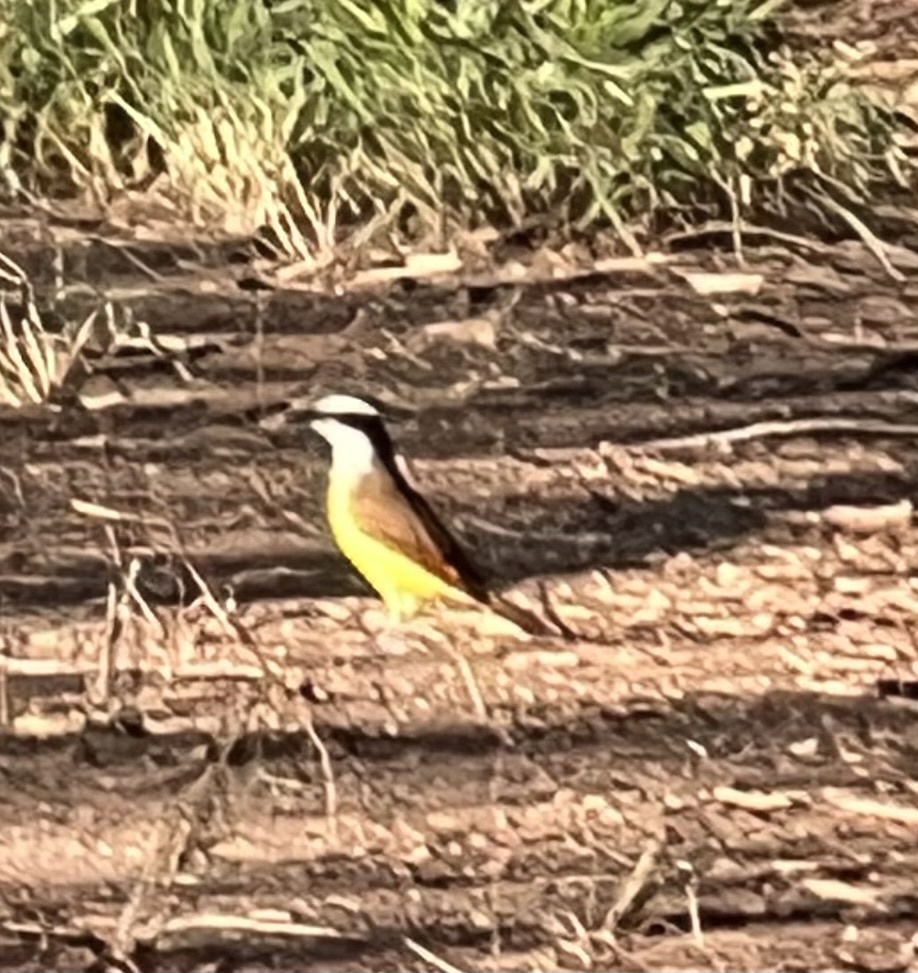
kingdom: Animalia
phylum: Chordata
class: Aves
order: Passeriformes
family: Tyrannidae
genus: Pitangus
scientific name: Pitangus sulphuratus
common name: Great kiskadee
